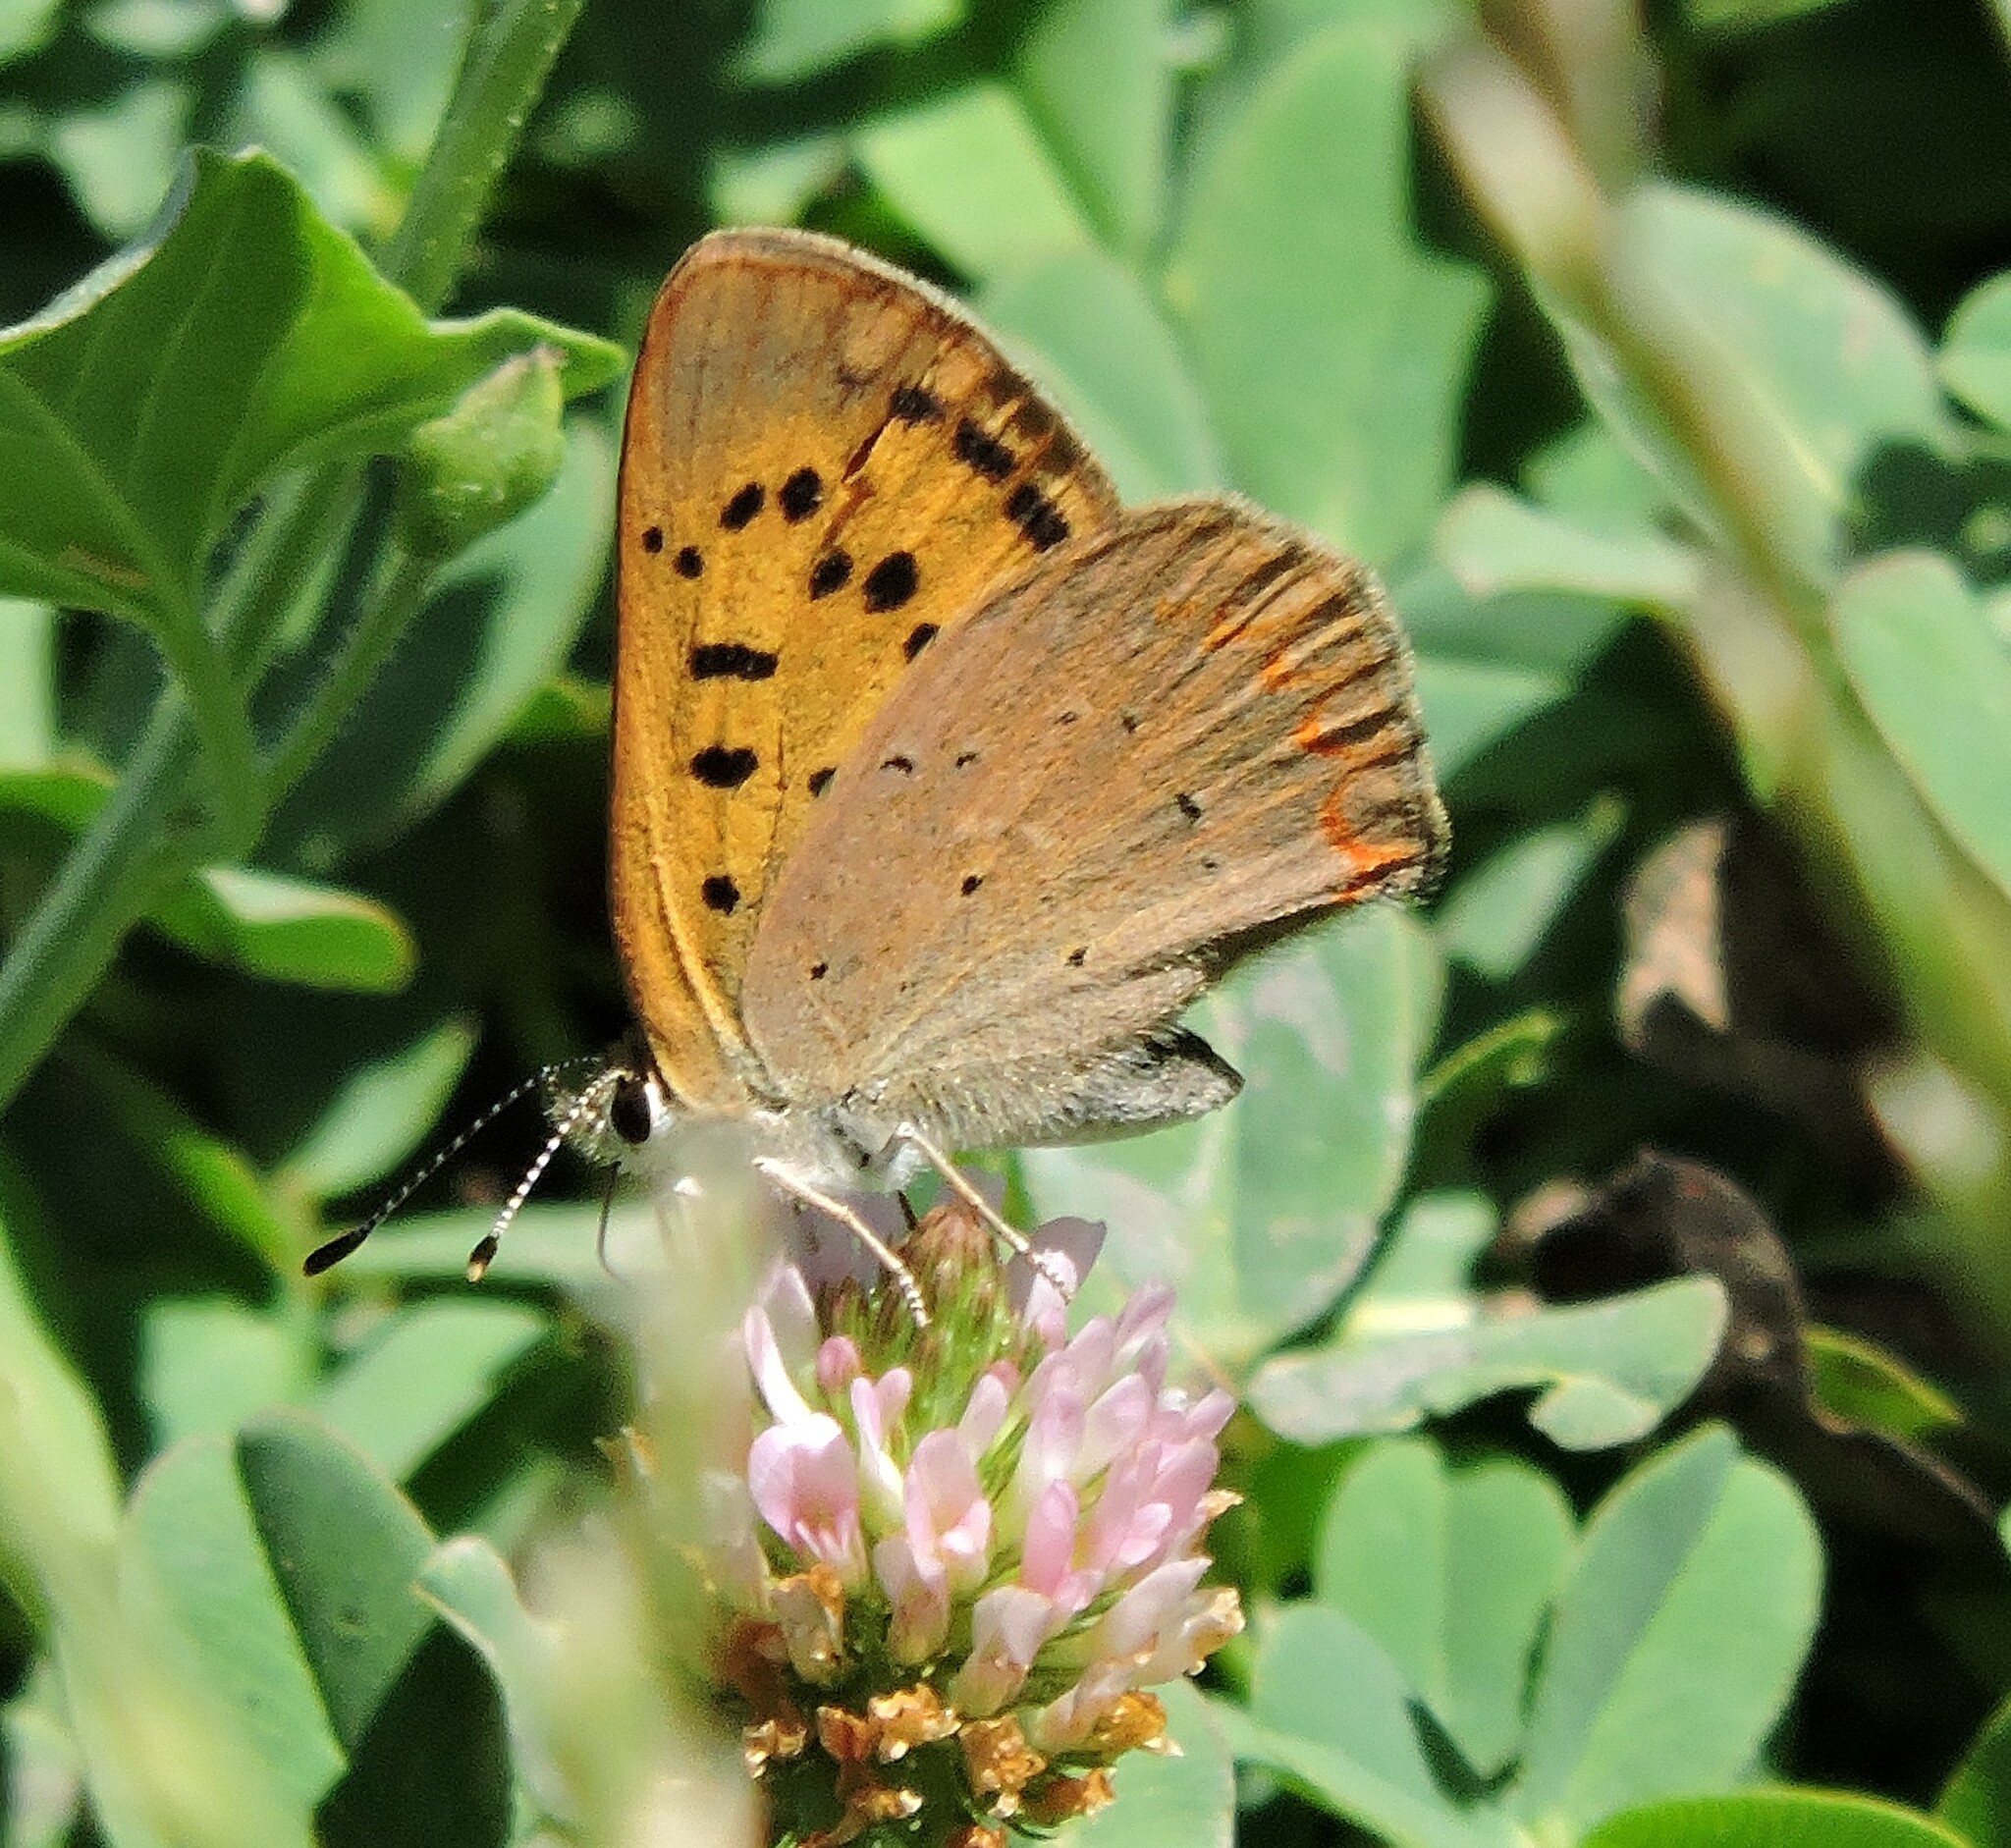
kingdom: Animalia
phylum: Arthropoda
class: Insecta
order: Lepidoptera
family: Lycaenidae
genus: Tharsalea
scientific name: Tharsalea helloides
